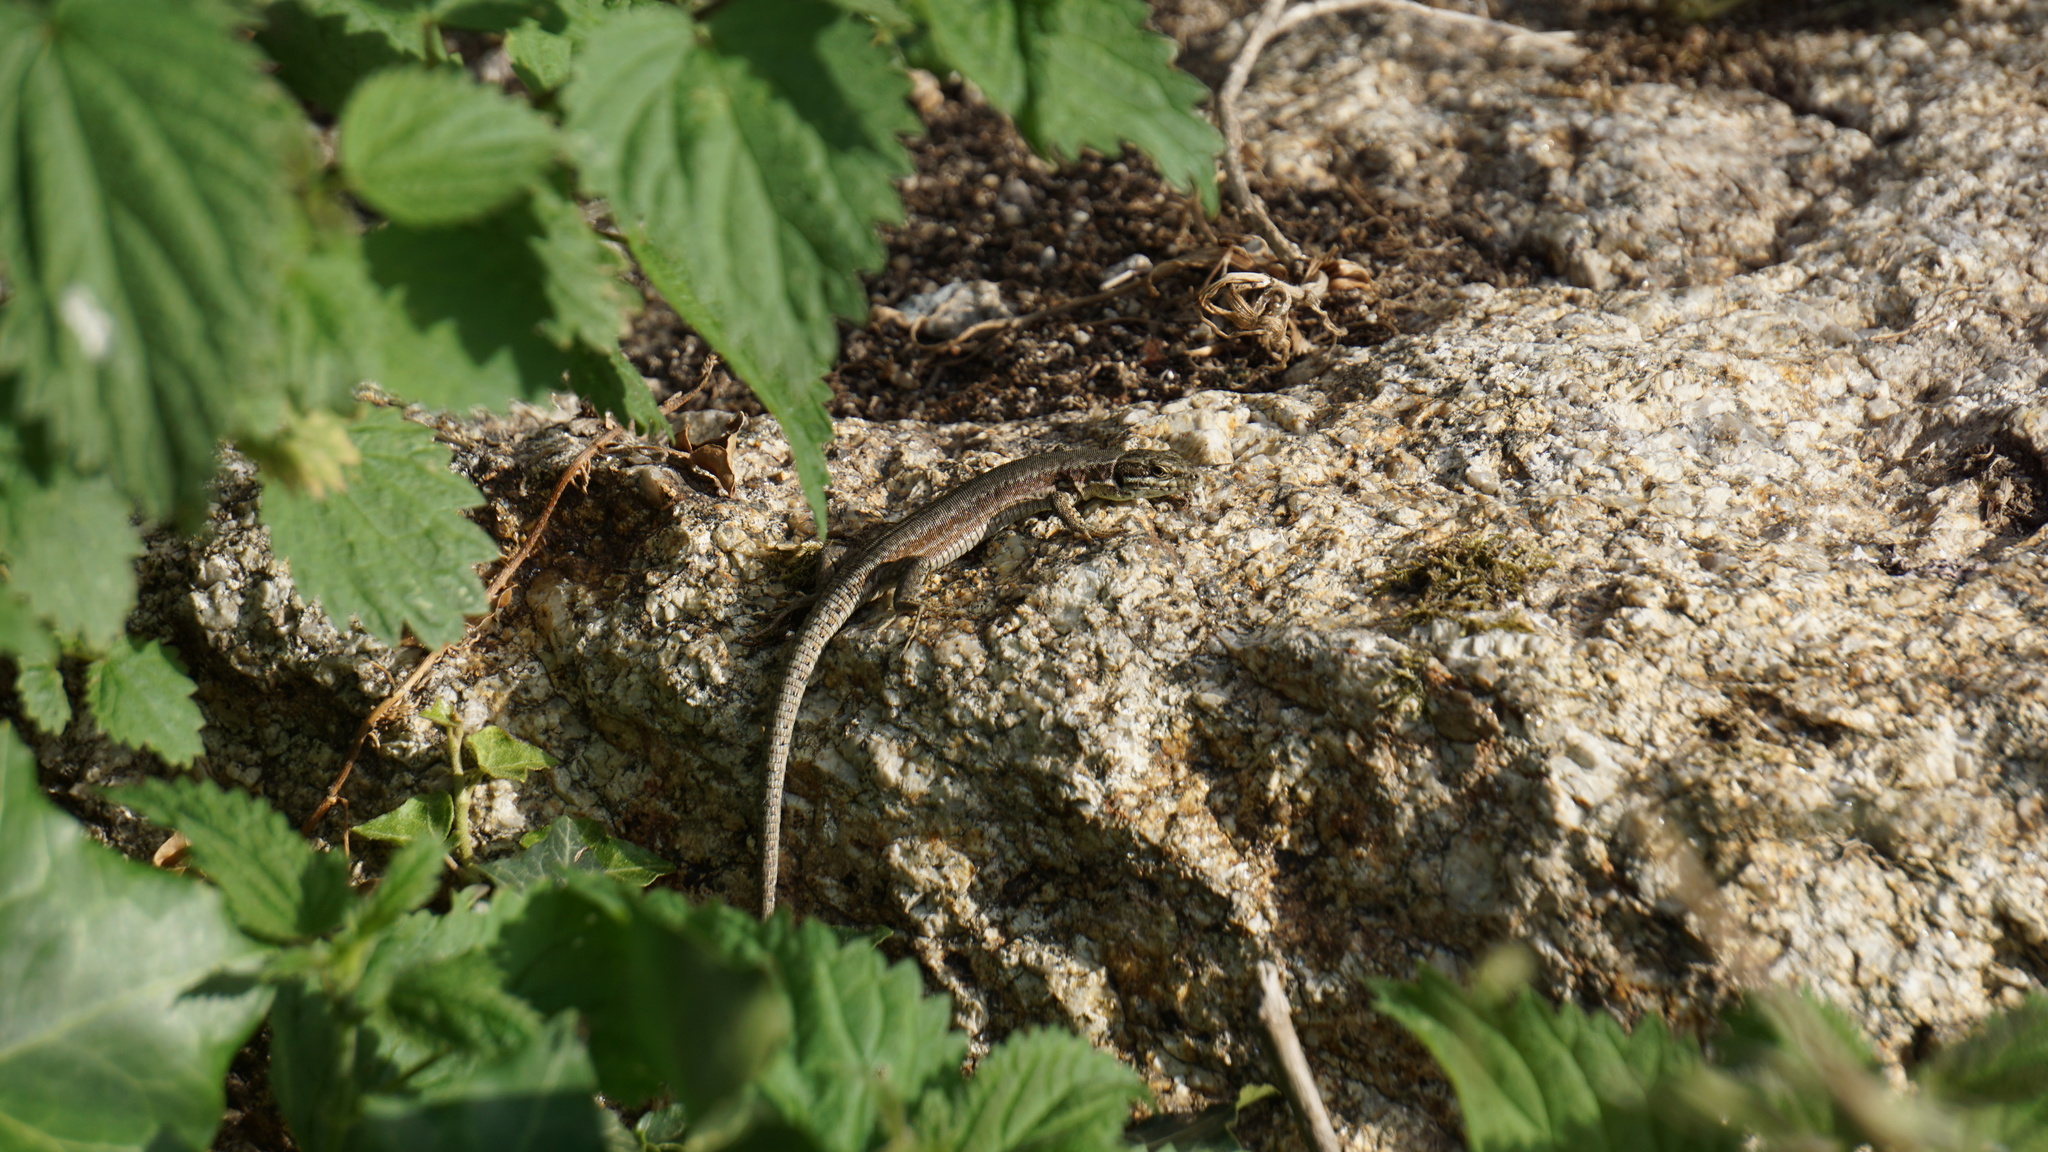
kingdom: Animalia
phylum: Chordata
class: Squamata
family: Lacertidae
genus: Podarcis
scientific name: Podarcis muralis
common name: Common wall lizard
